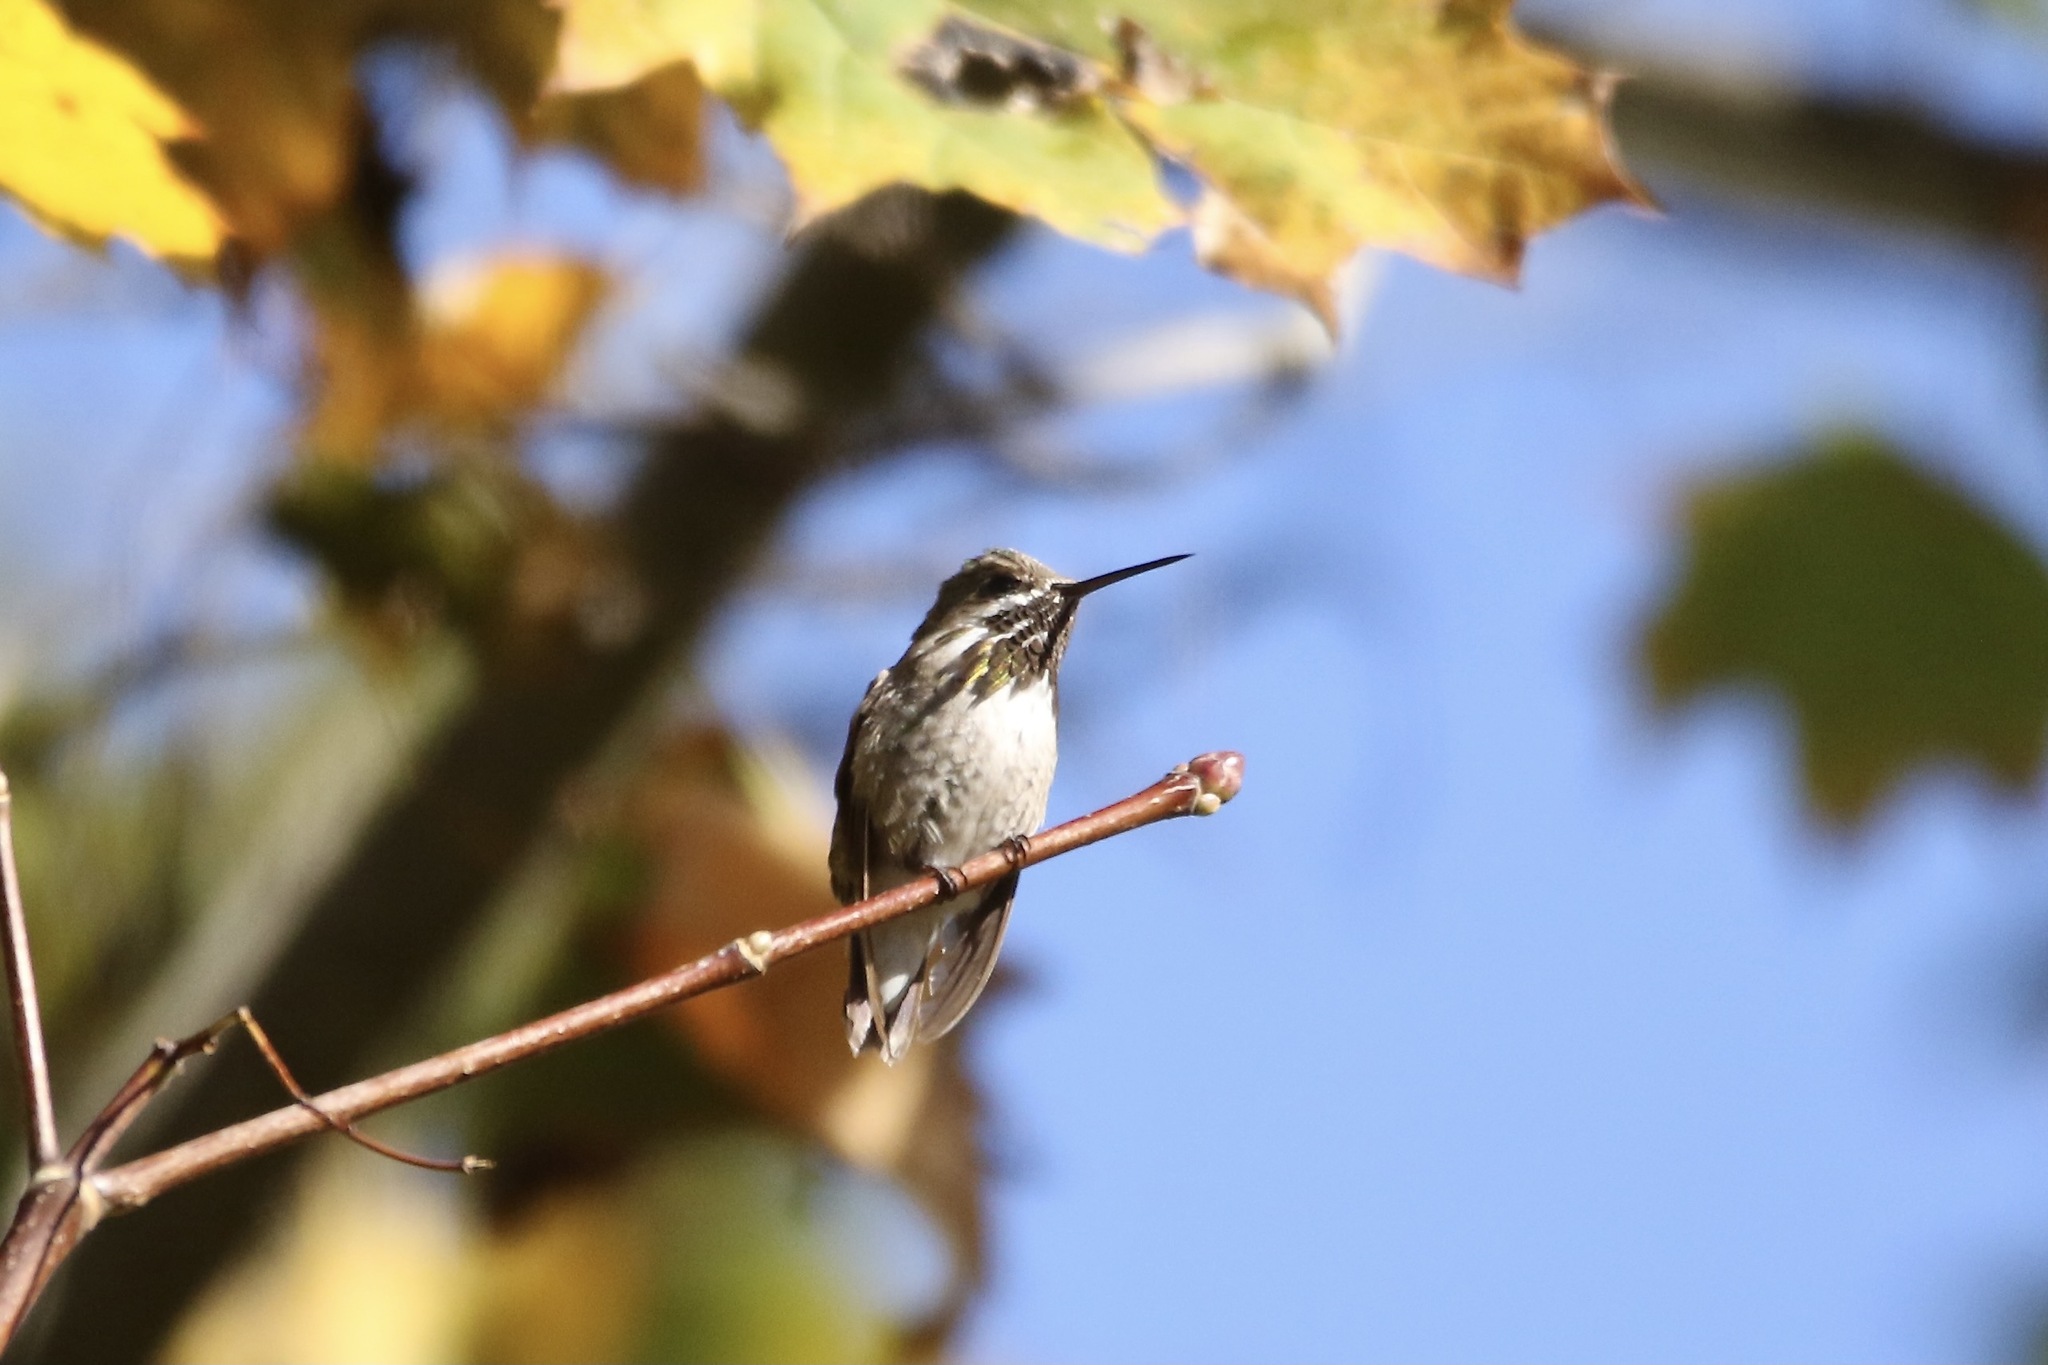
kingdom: Animalia
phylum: Chordata
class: Aves
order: Apodiformes
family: Trochilidae
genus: Selasphorus
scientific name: Selasphorus calliope
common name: Calliope hummingbird
